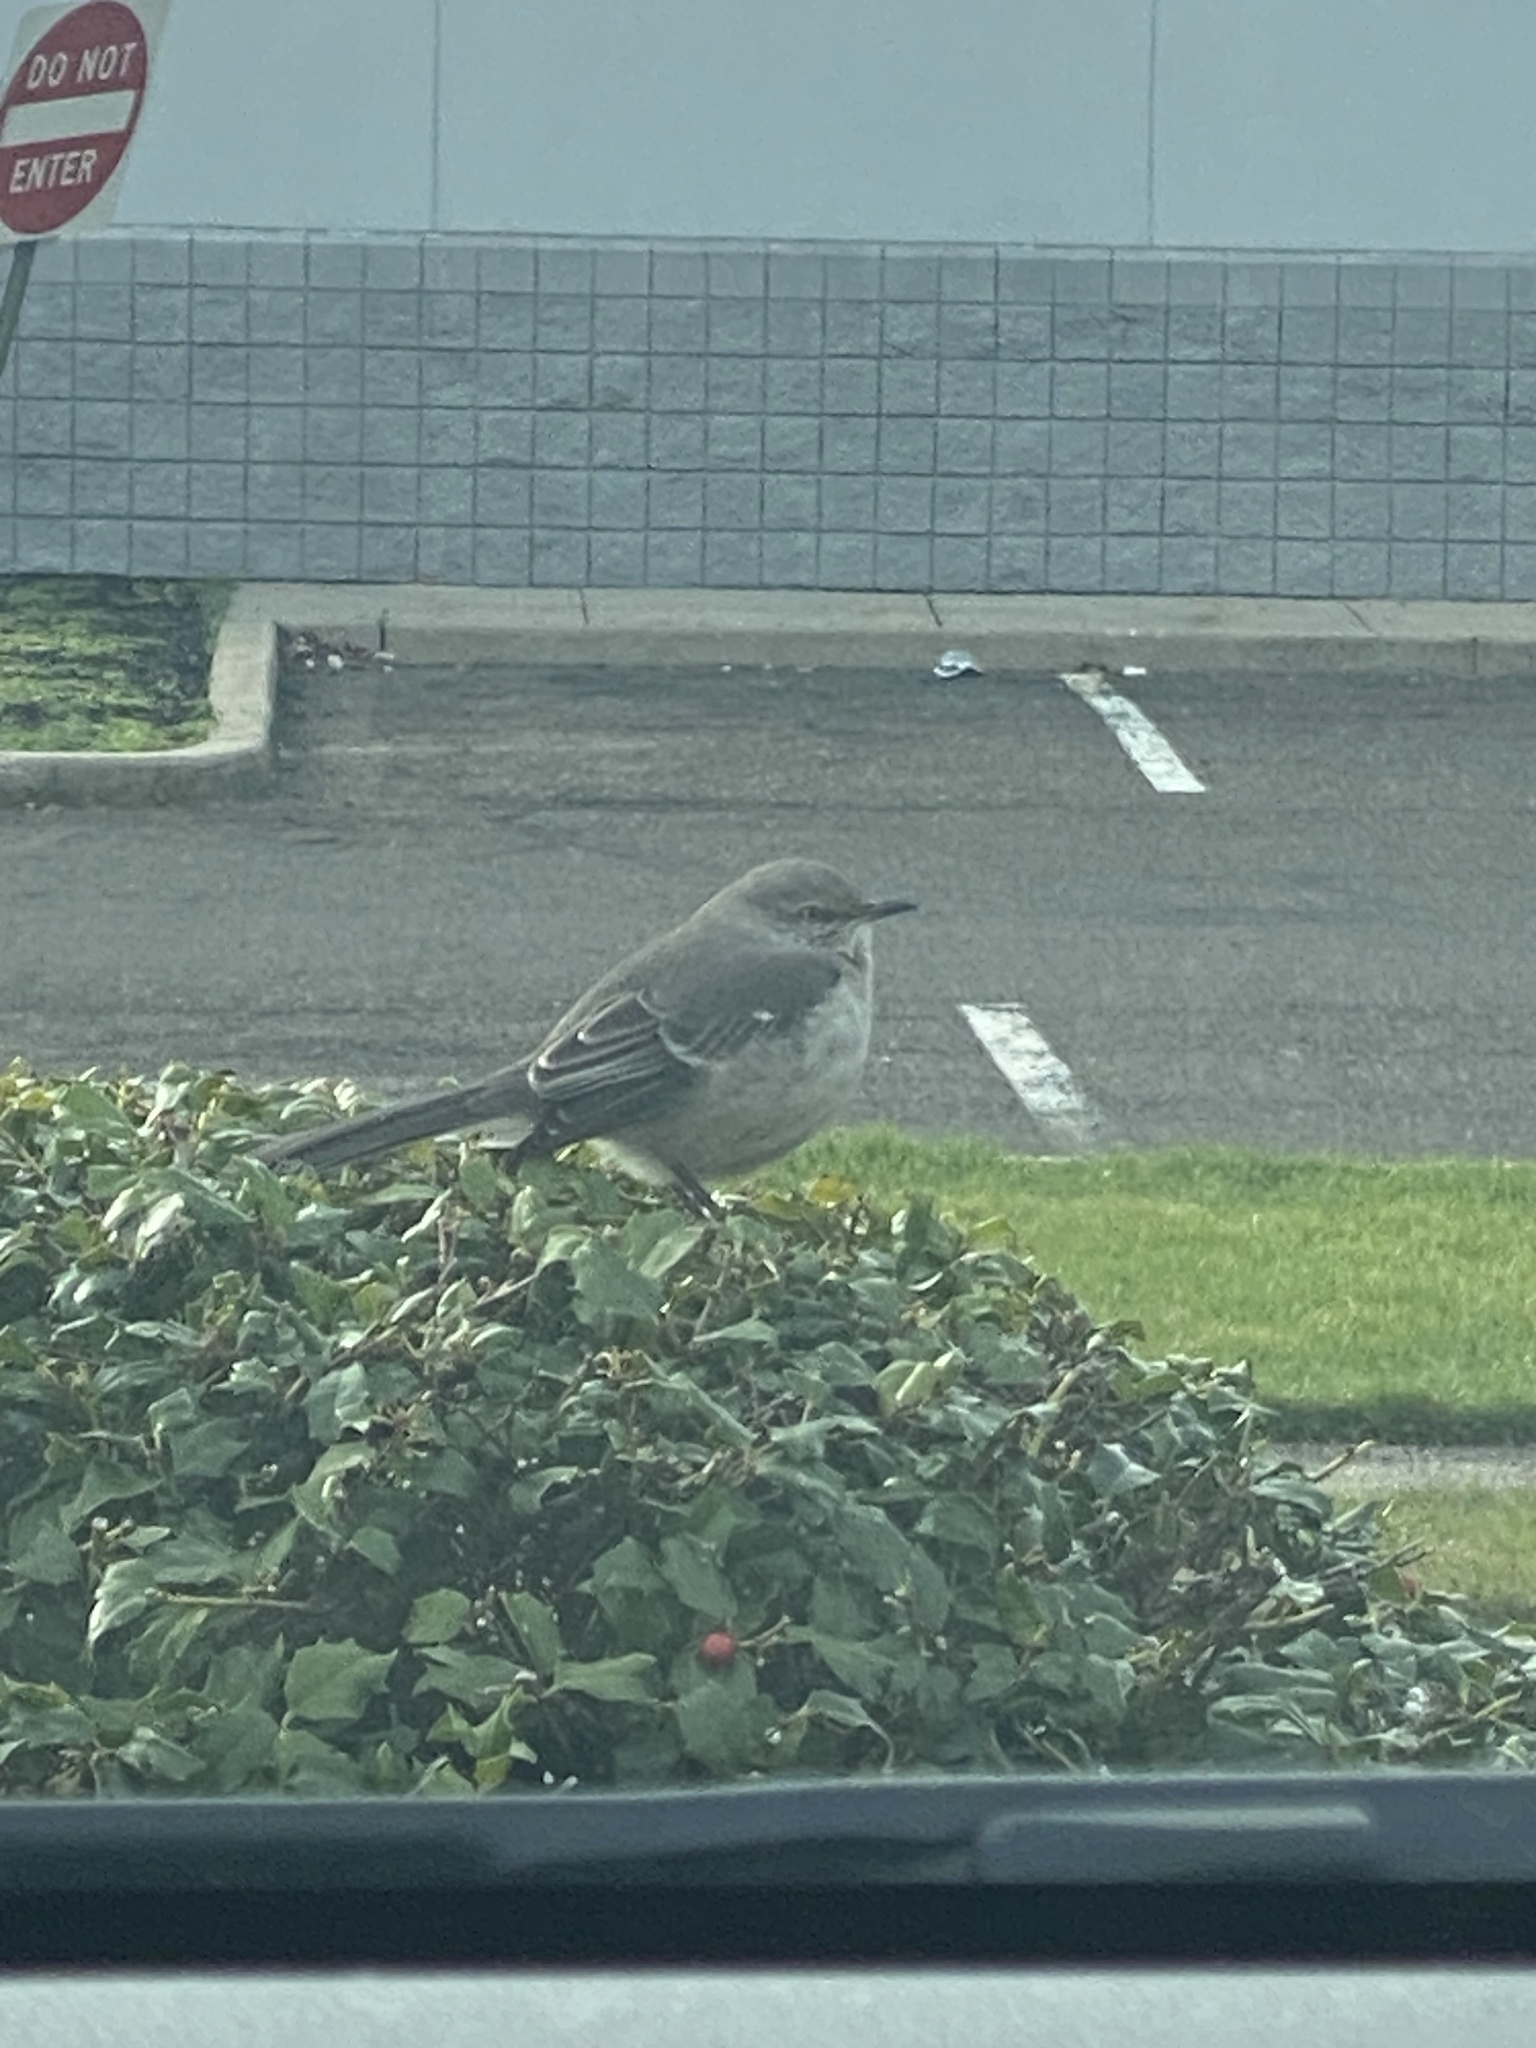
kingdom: Animalia
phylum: Chordata
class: Aves
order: Passeriformes
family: Mimidae
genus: Mimus
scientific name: Mimus polyglottos
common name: Northern mockingbird
